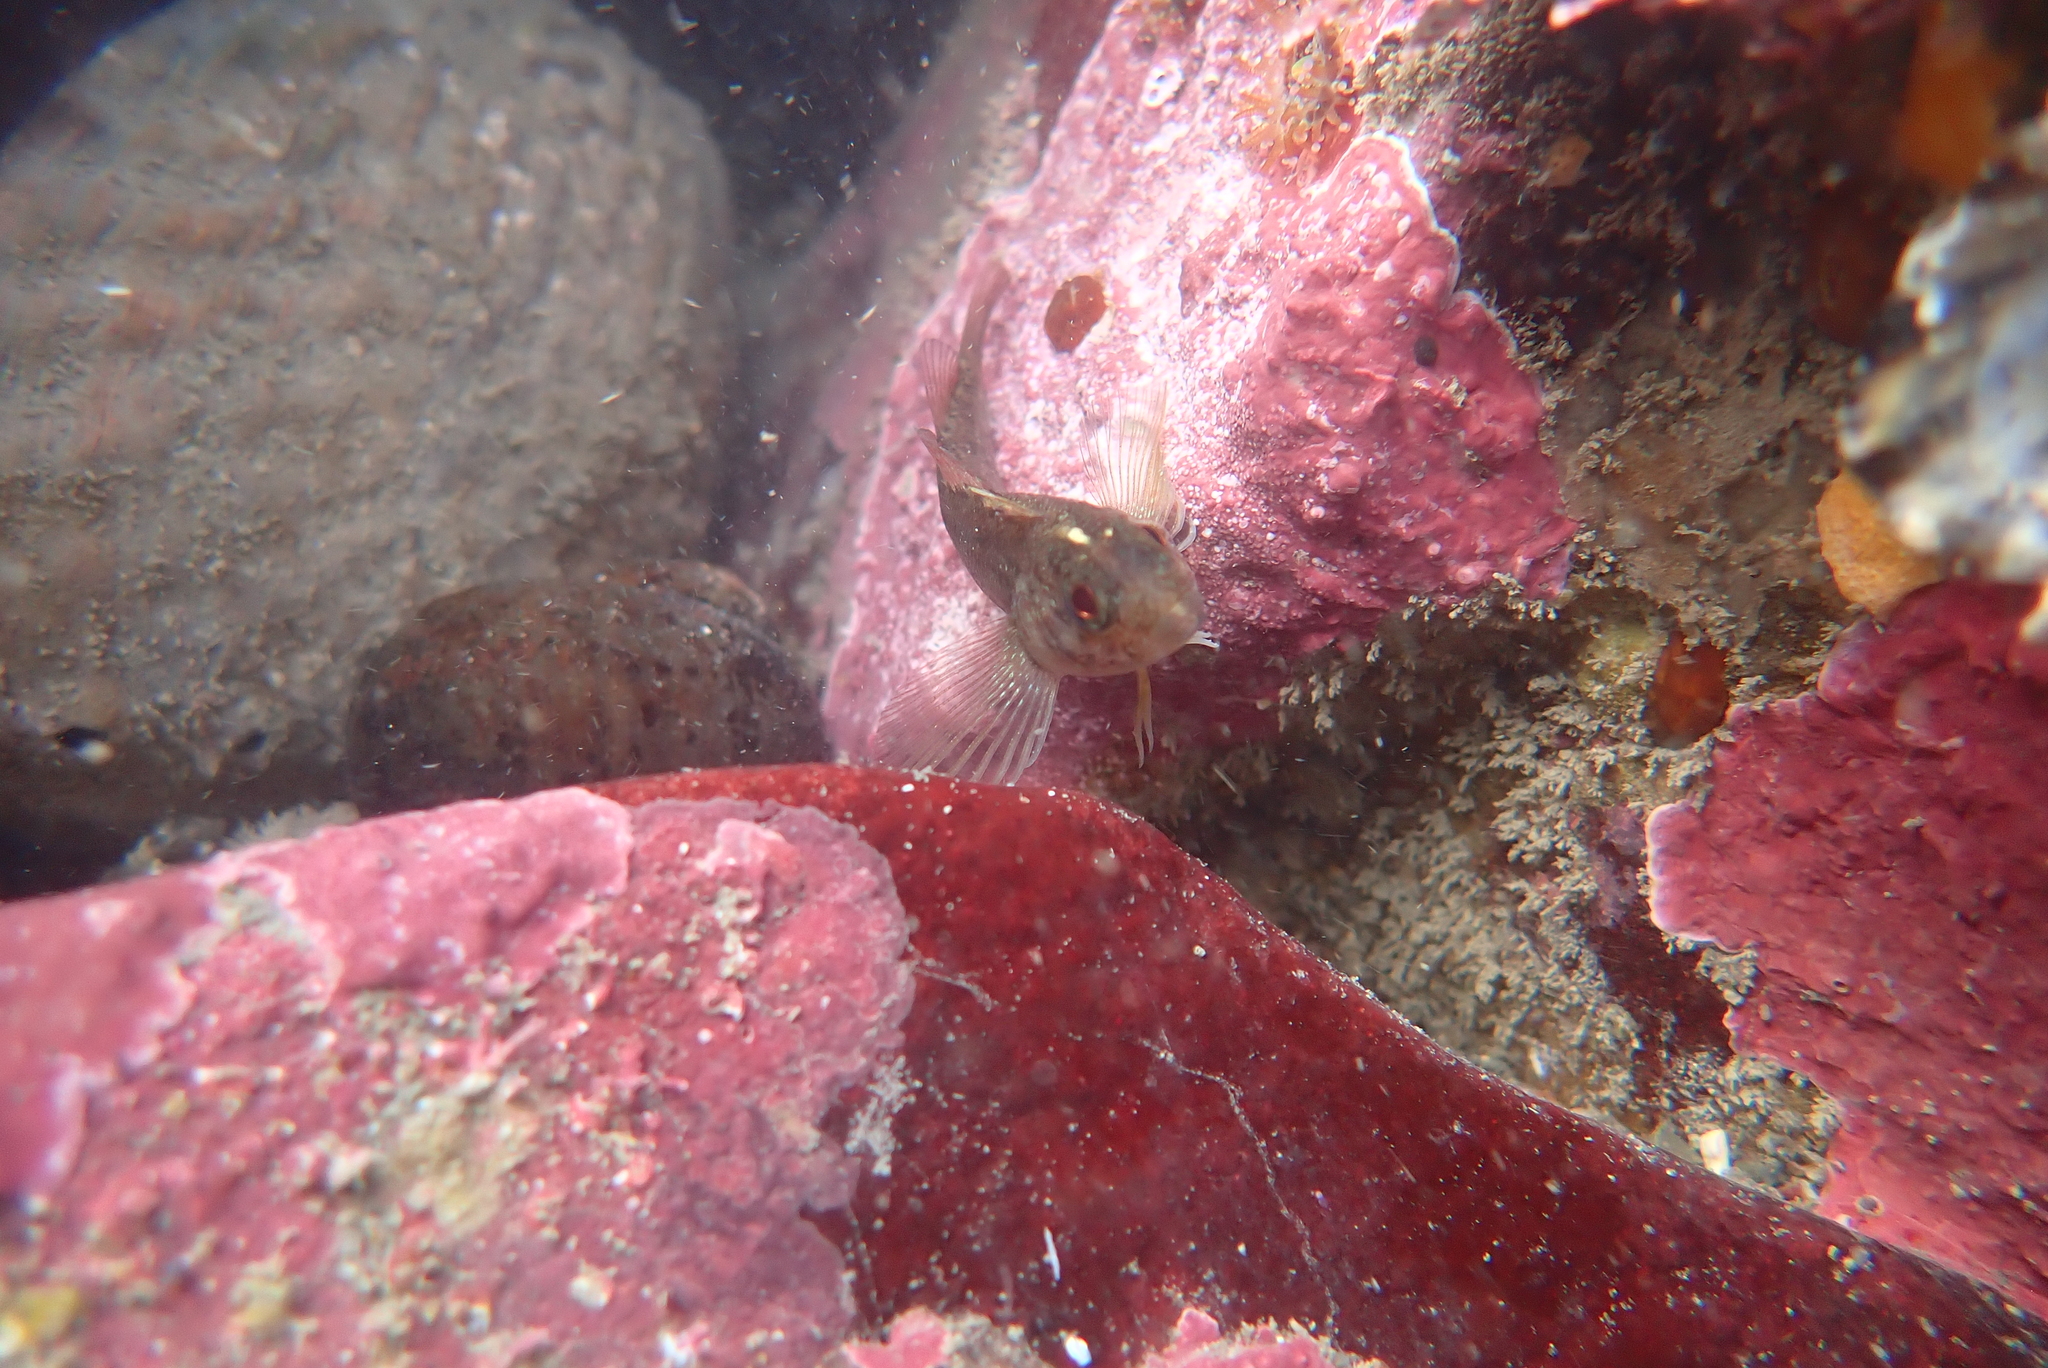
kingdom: Animalia
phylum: Chordata
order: Perciformes
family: Tripterygiidae
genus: Forsterygion
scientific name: Forsterygion lapillum
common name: Common triplefin
